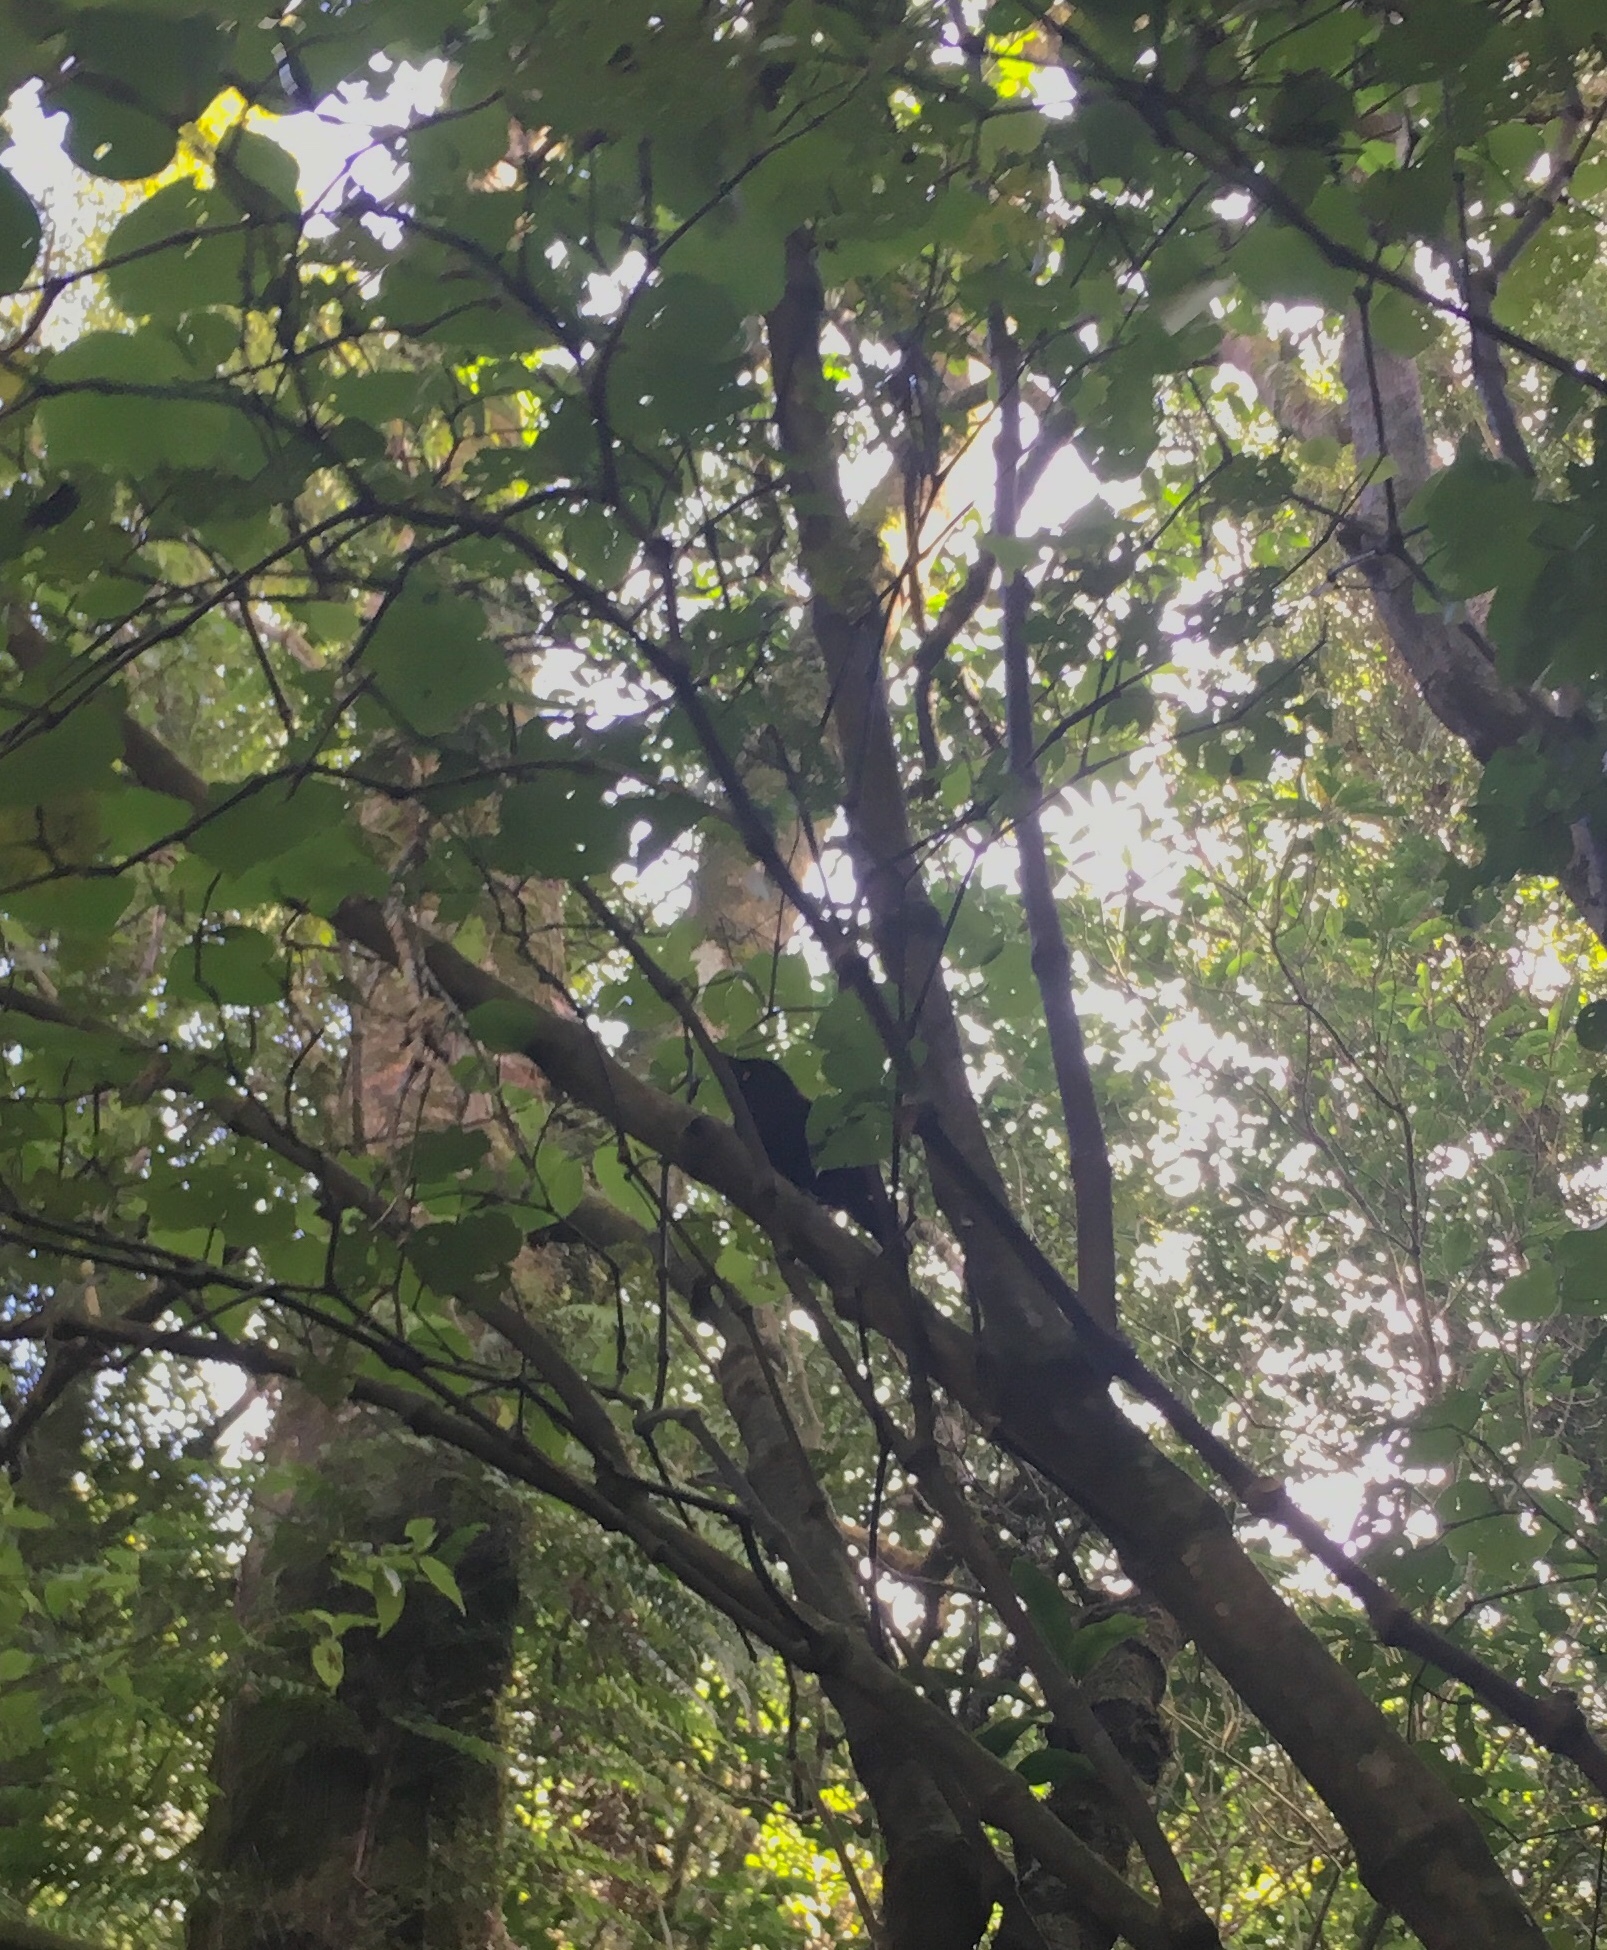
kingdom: Animalia
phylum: Chordata
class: Aves
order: Passeriformes
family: Callaeatidae
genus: Philesturnus
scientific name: Philesturnus carunculatus
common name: South island saddleback
